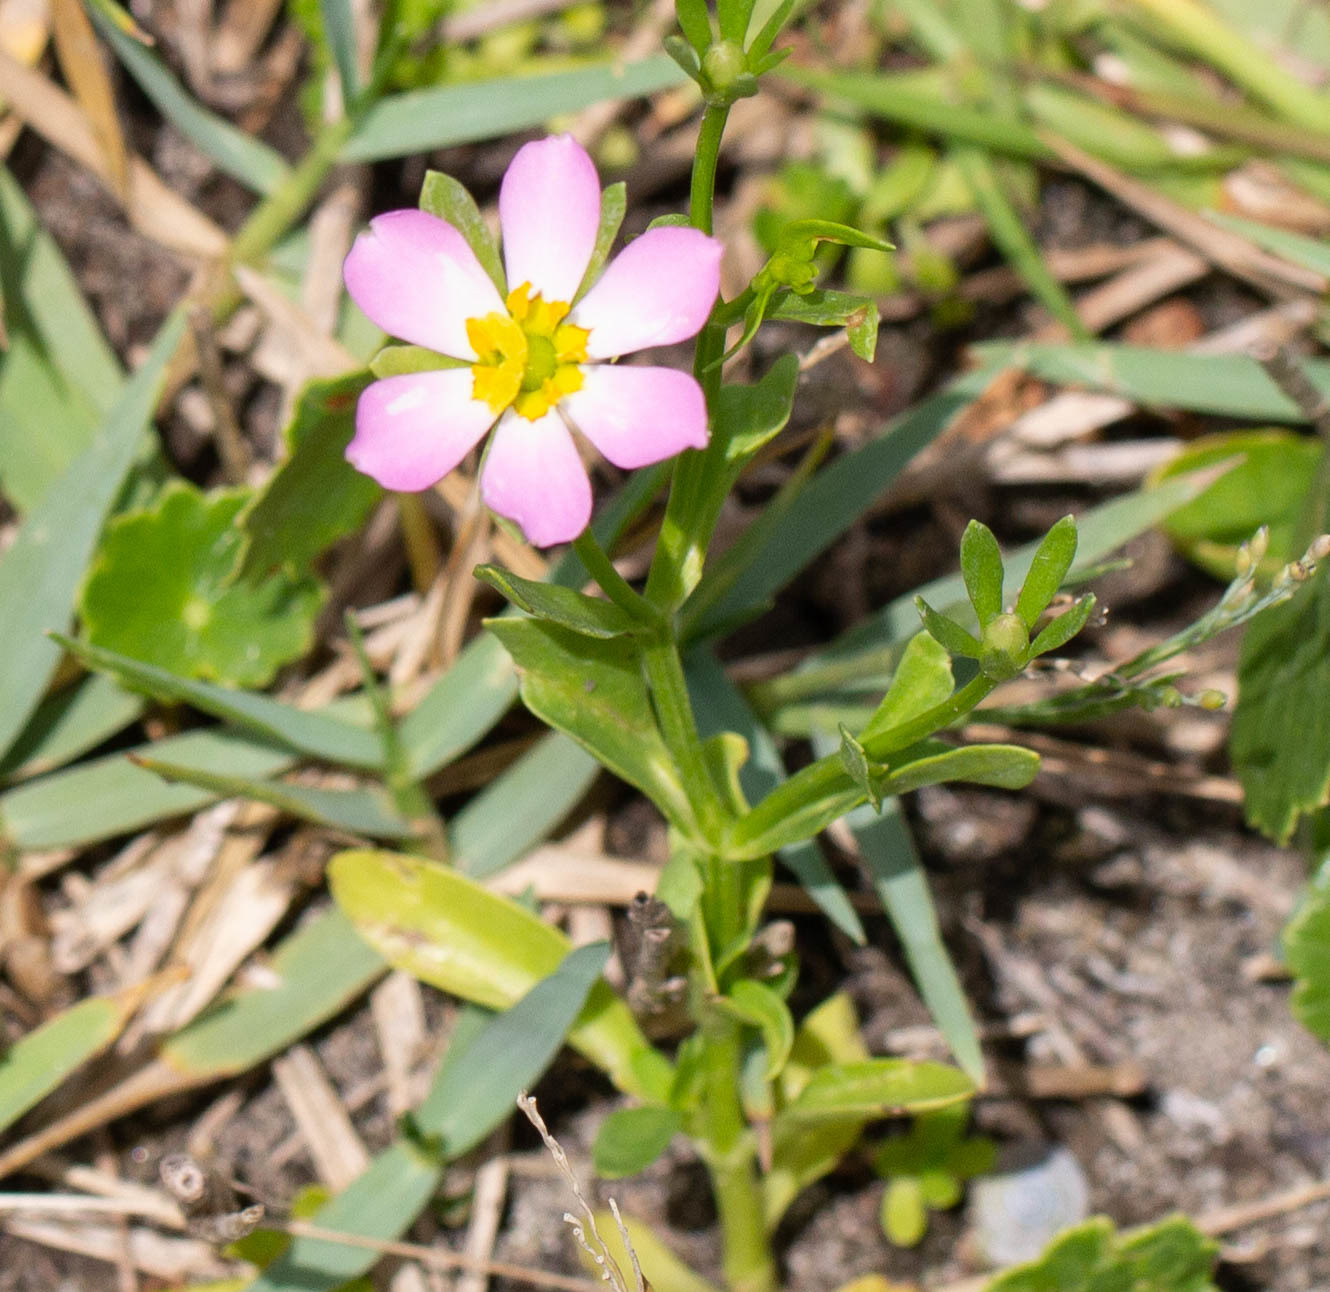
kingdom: Plantae
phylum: Tracheophyta
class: Magnoliopsida
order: Gentianales
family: Gentianaceae
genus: Sabatia
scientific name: Sabatia calycina
